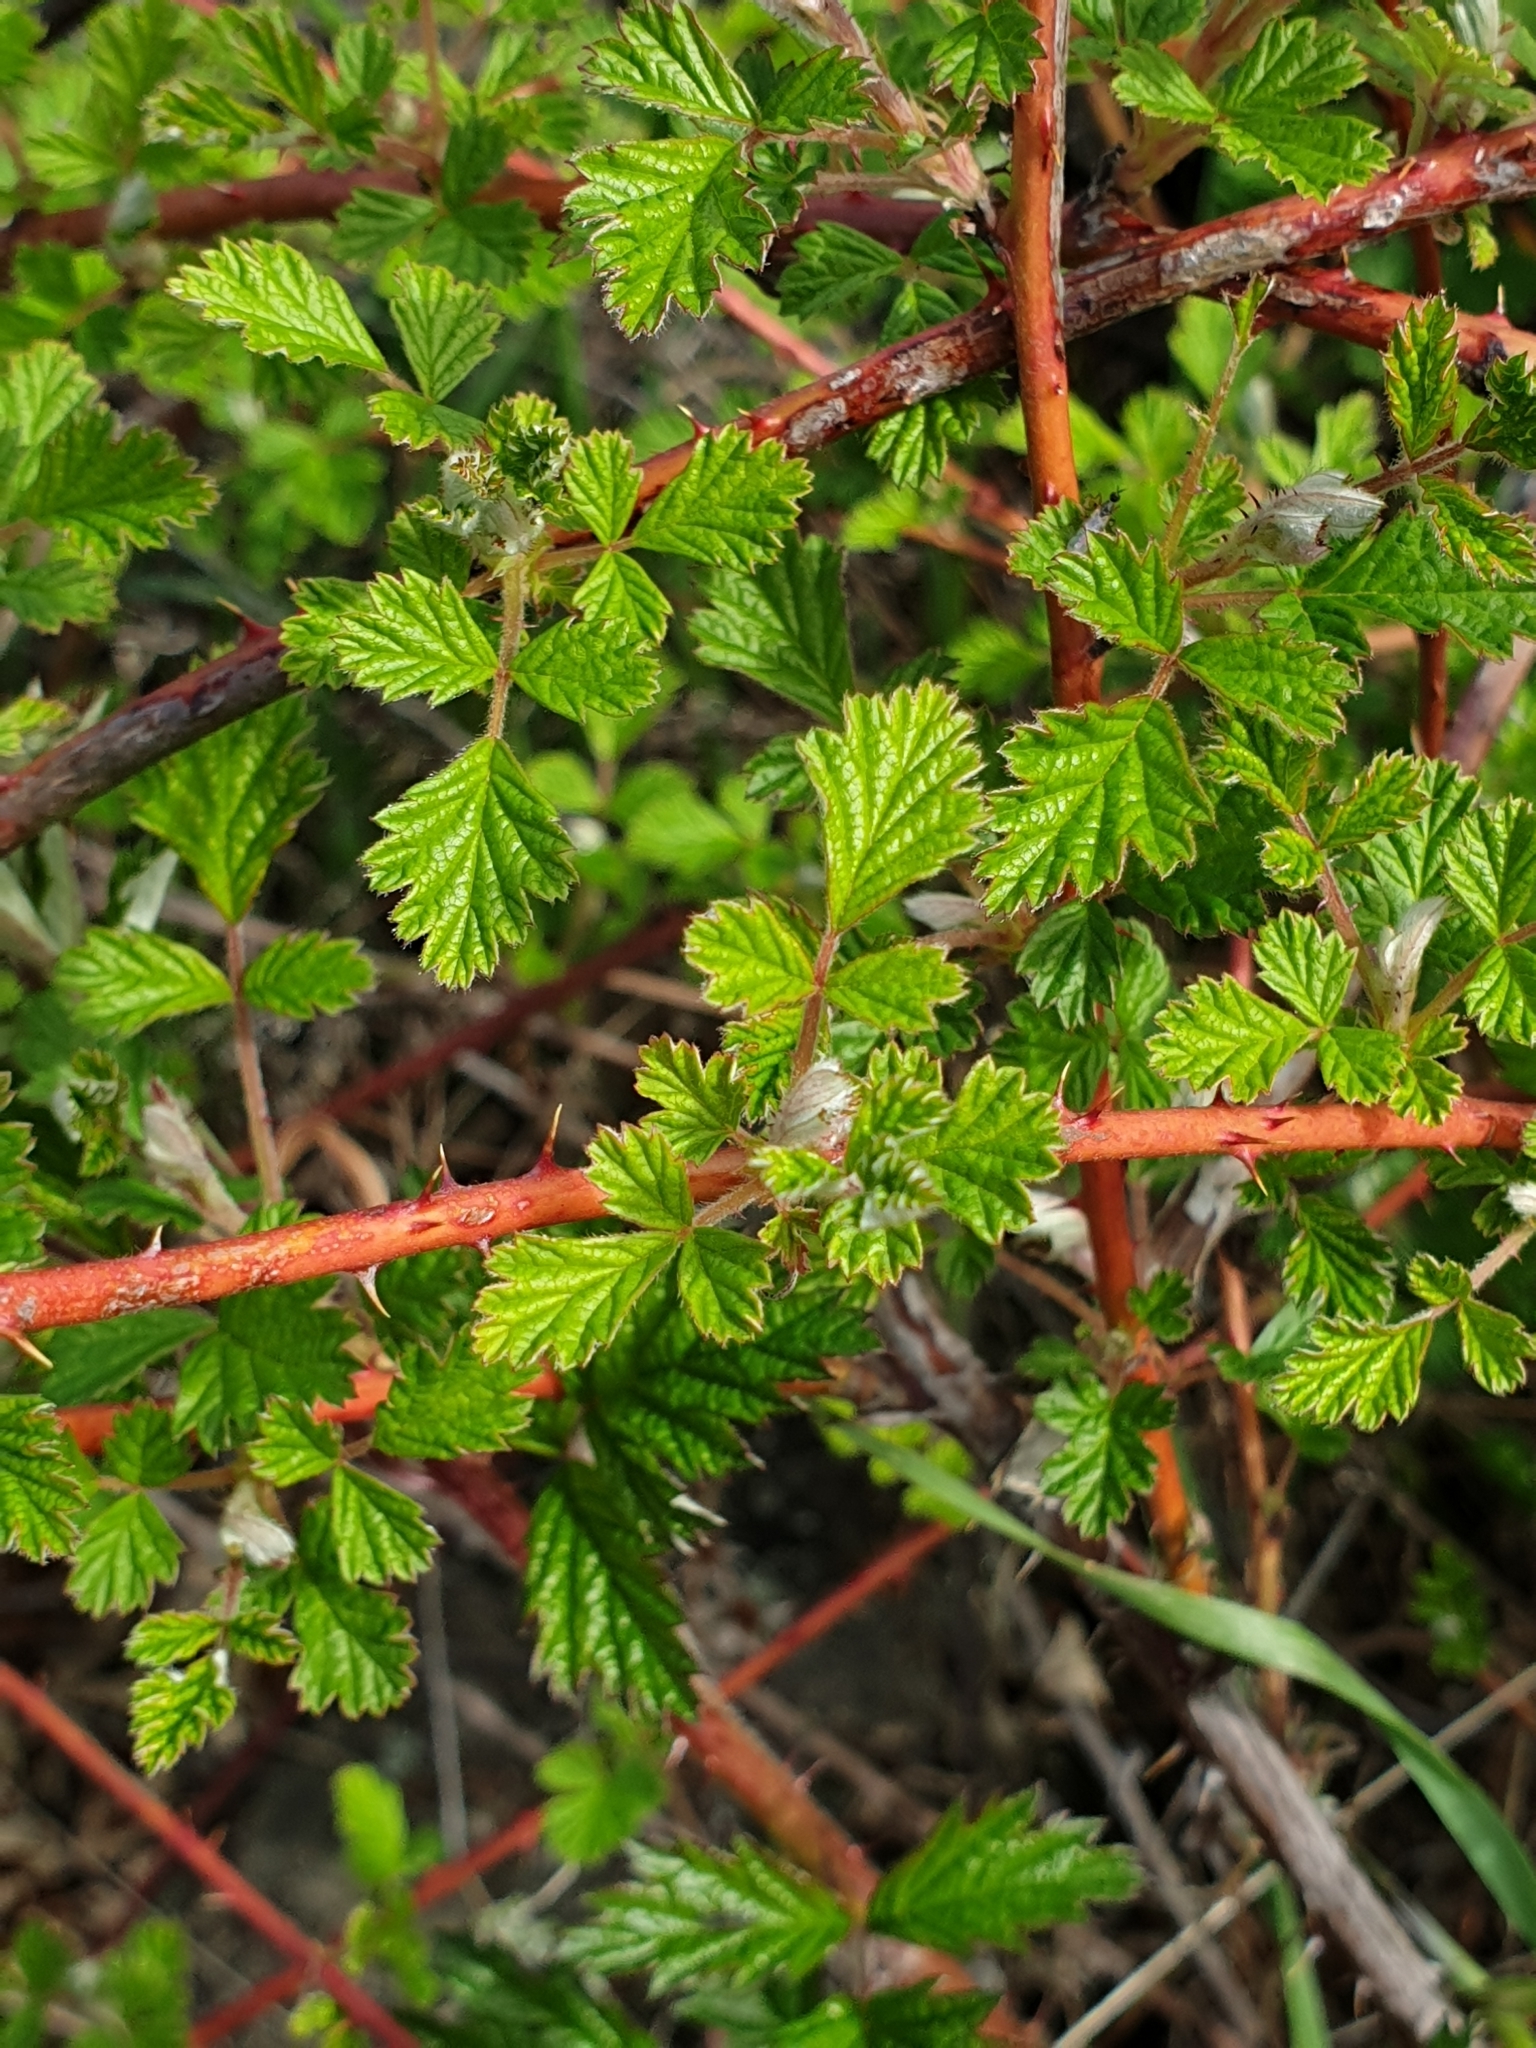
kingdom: Plantae
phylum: Tracheophyta
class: Magnoliopsida
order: Rosales
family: Rosaceae
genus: Rubus
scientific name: Rubus parvifolius
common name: Threeleaf blackberry
